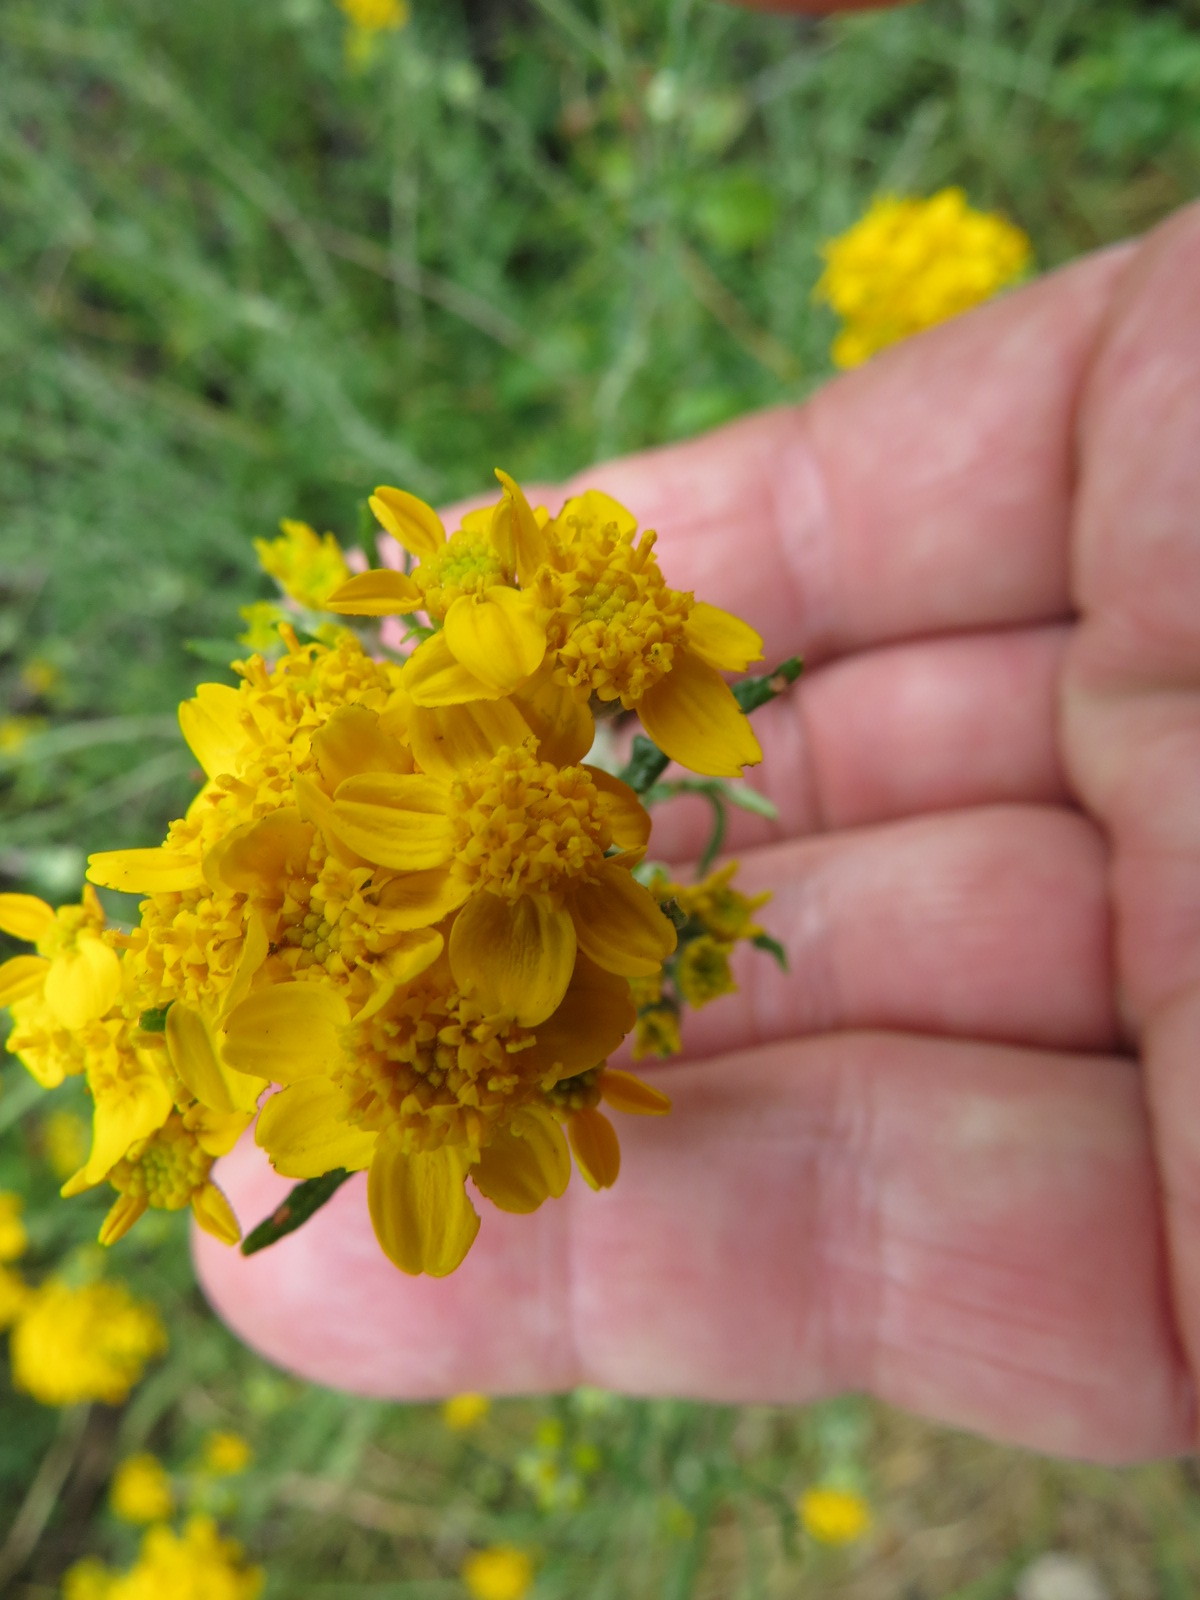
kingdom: Plantae
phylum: Tracheophyta
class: Magnoliopsida
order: Asterales
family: Asteraceae
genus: Eriophyllum
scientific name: Eriophyllum confertiflorum
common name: Golden-yarrow
